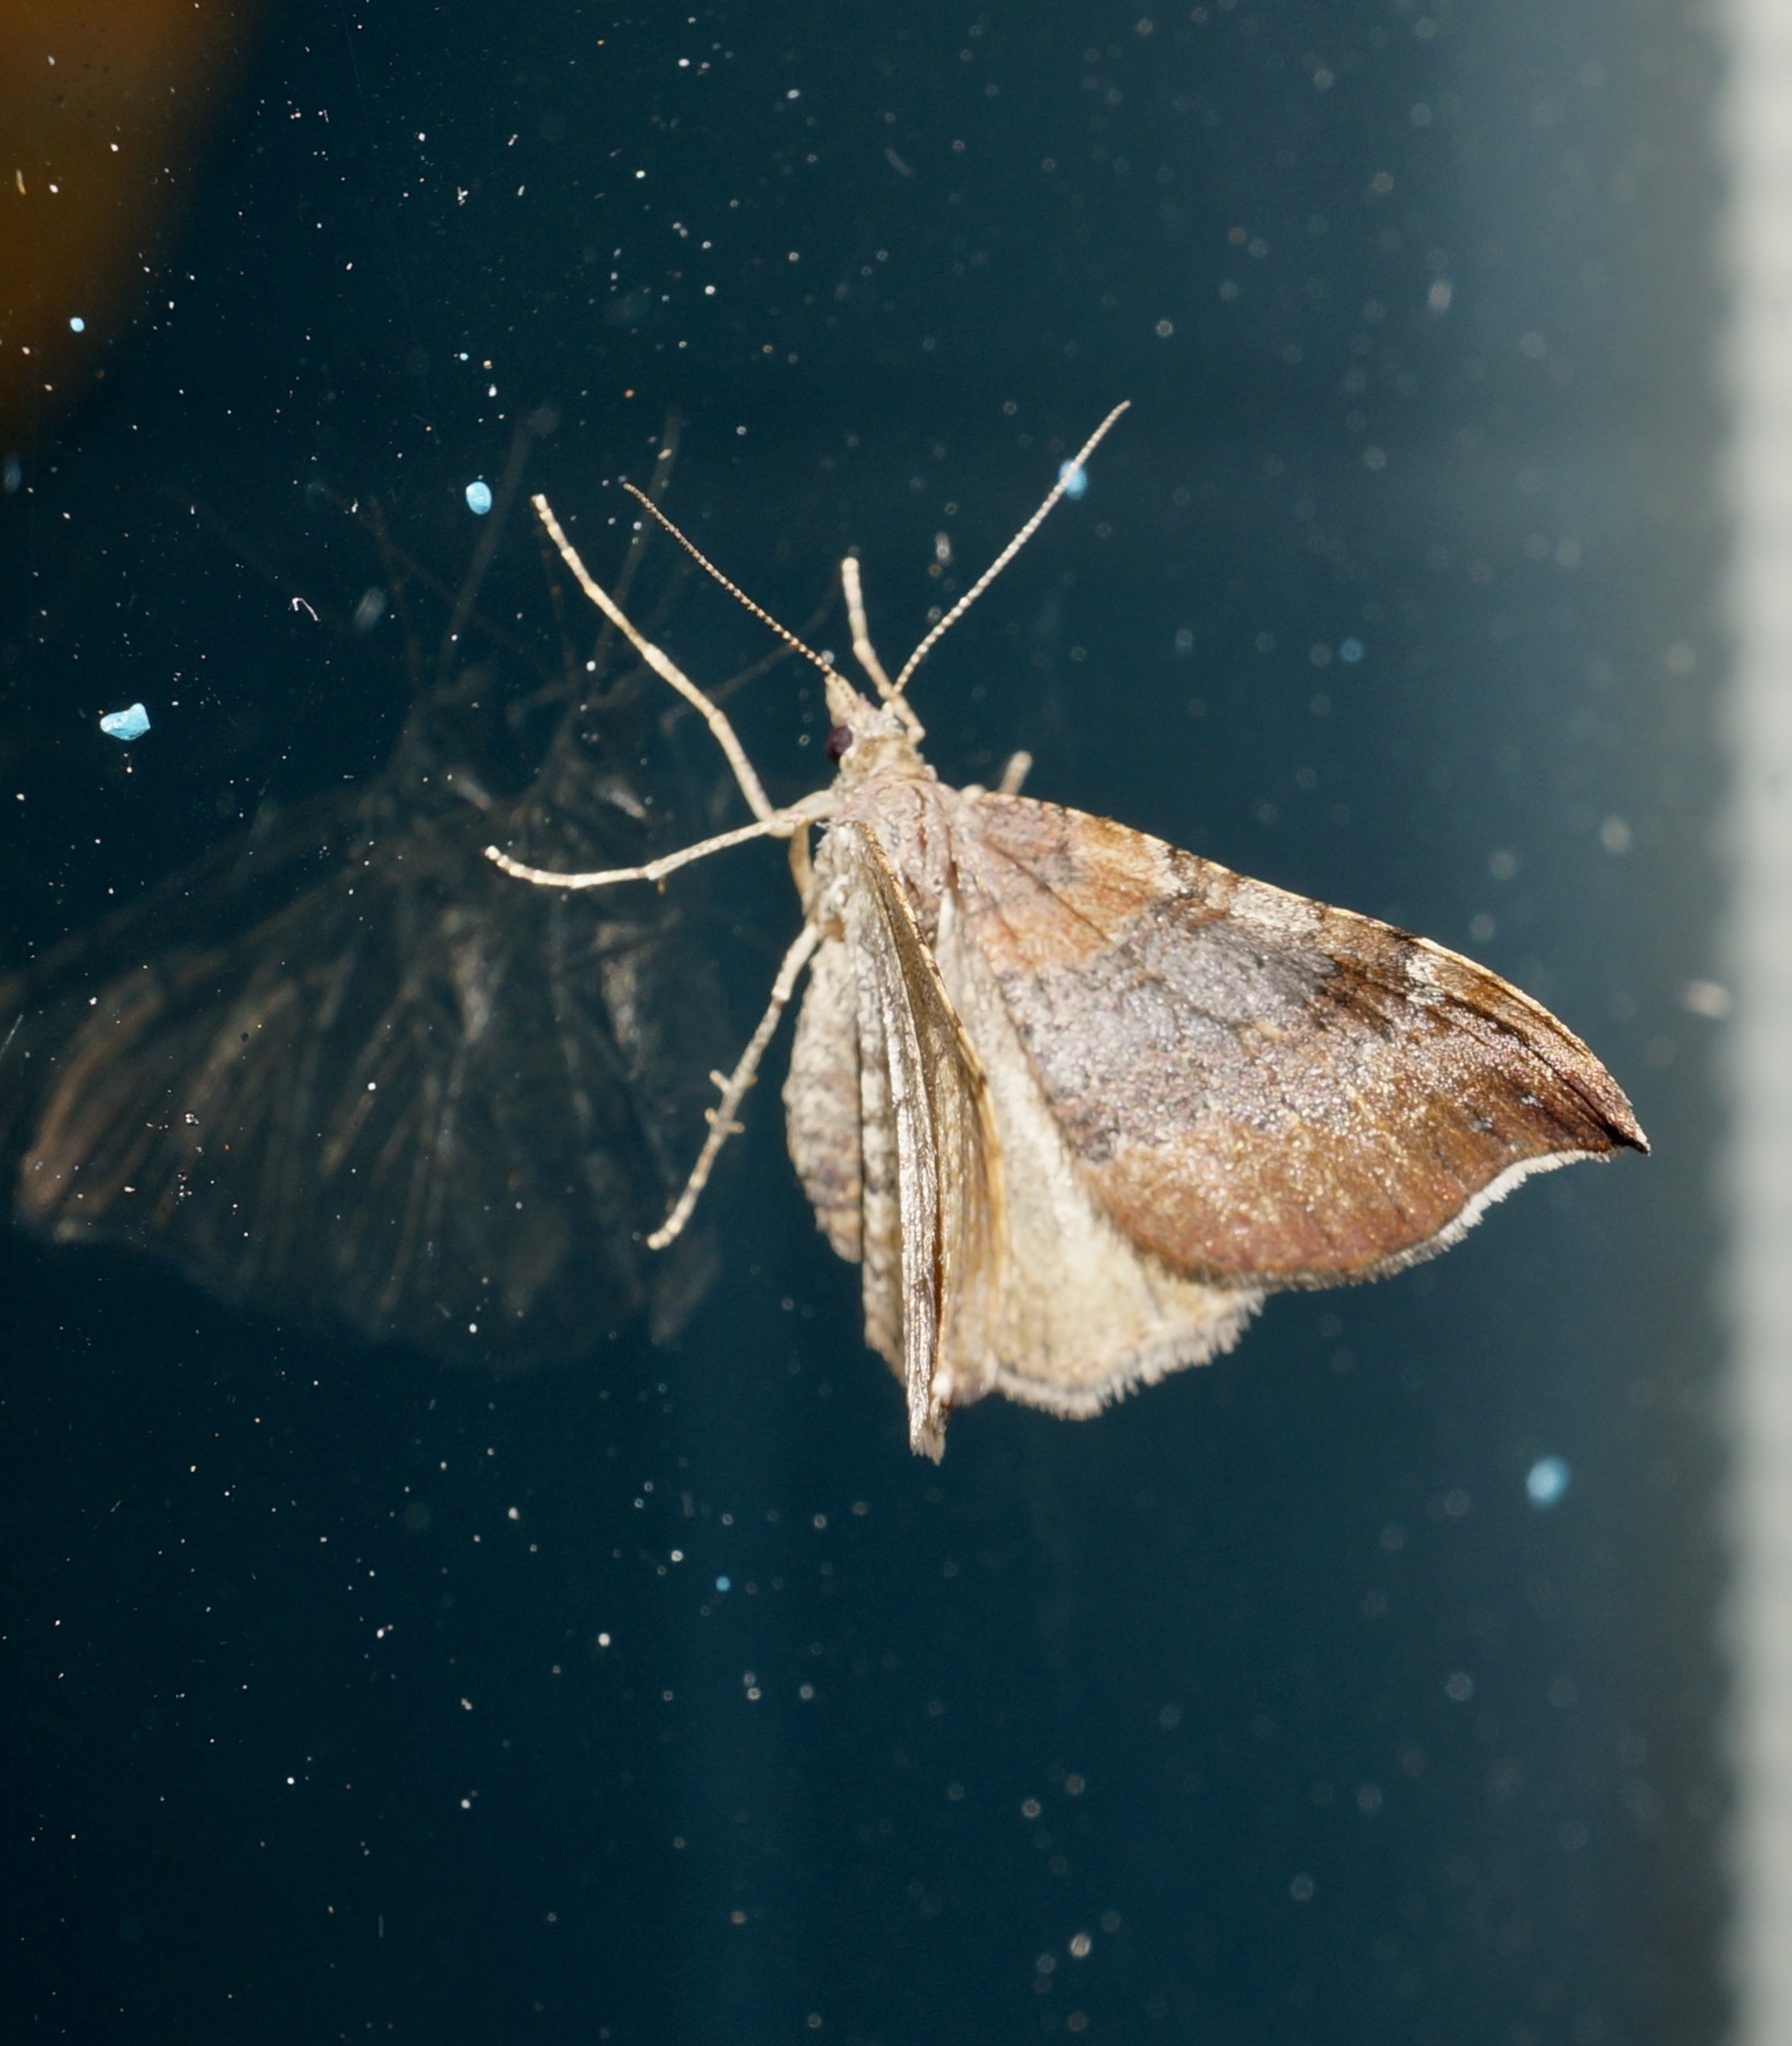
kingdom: Animalia
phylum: Arthropoda
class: Insecta
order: Lepidoptera
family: Geometridae
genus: Homodotis
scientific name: Homodotis megaspilata
